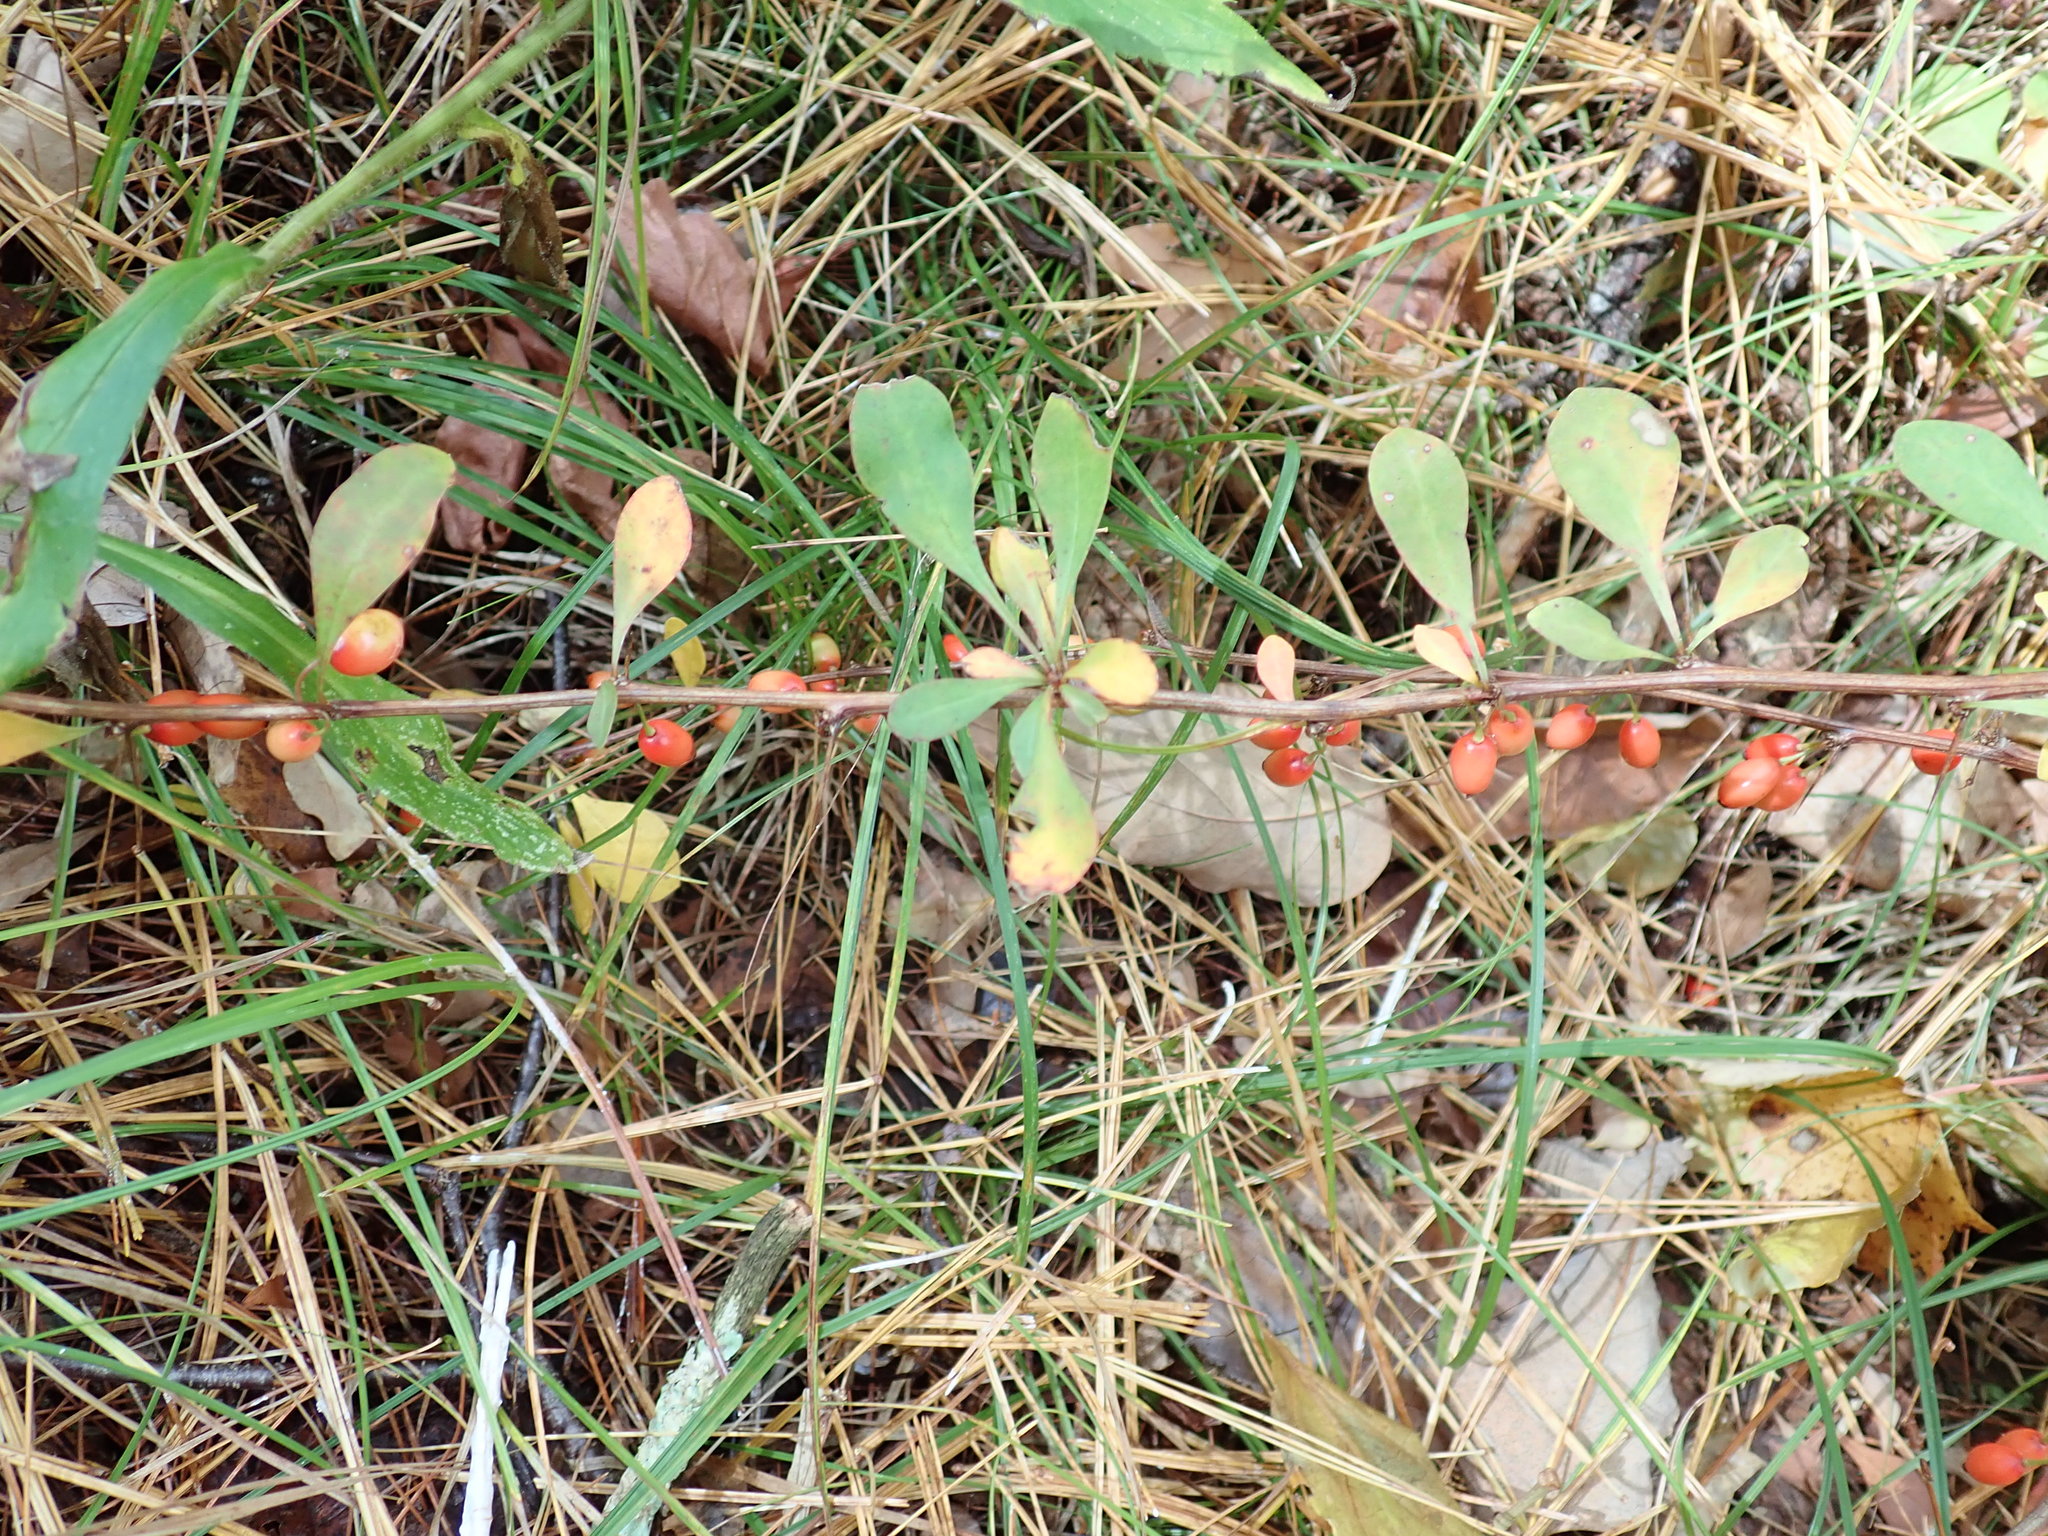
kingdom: Plantae
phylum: Tracheophyta
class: Magnoliopsida
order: Ranunculales
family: Berberidaceae
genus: Berberis
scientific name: Berberis thunbergii
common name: Japanese barberry
